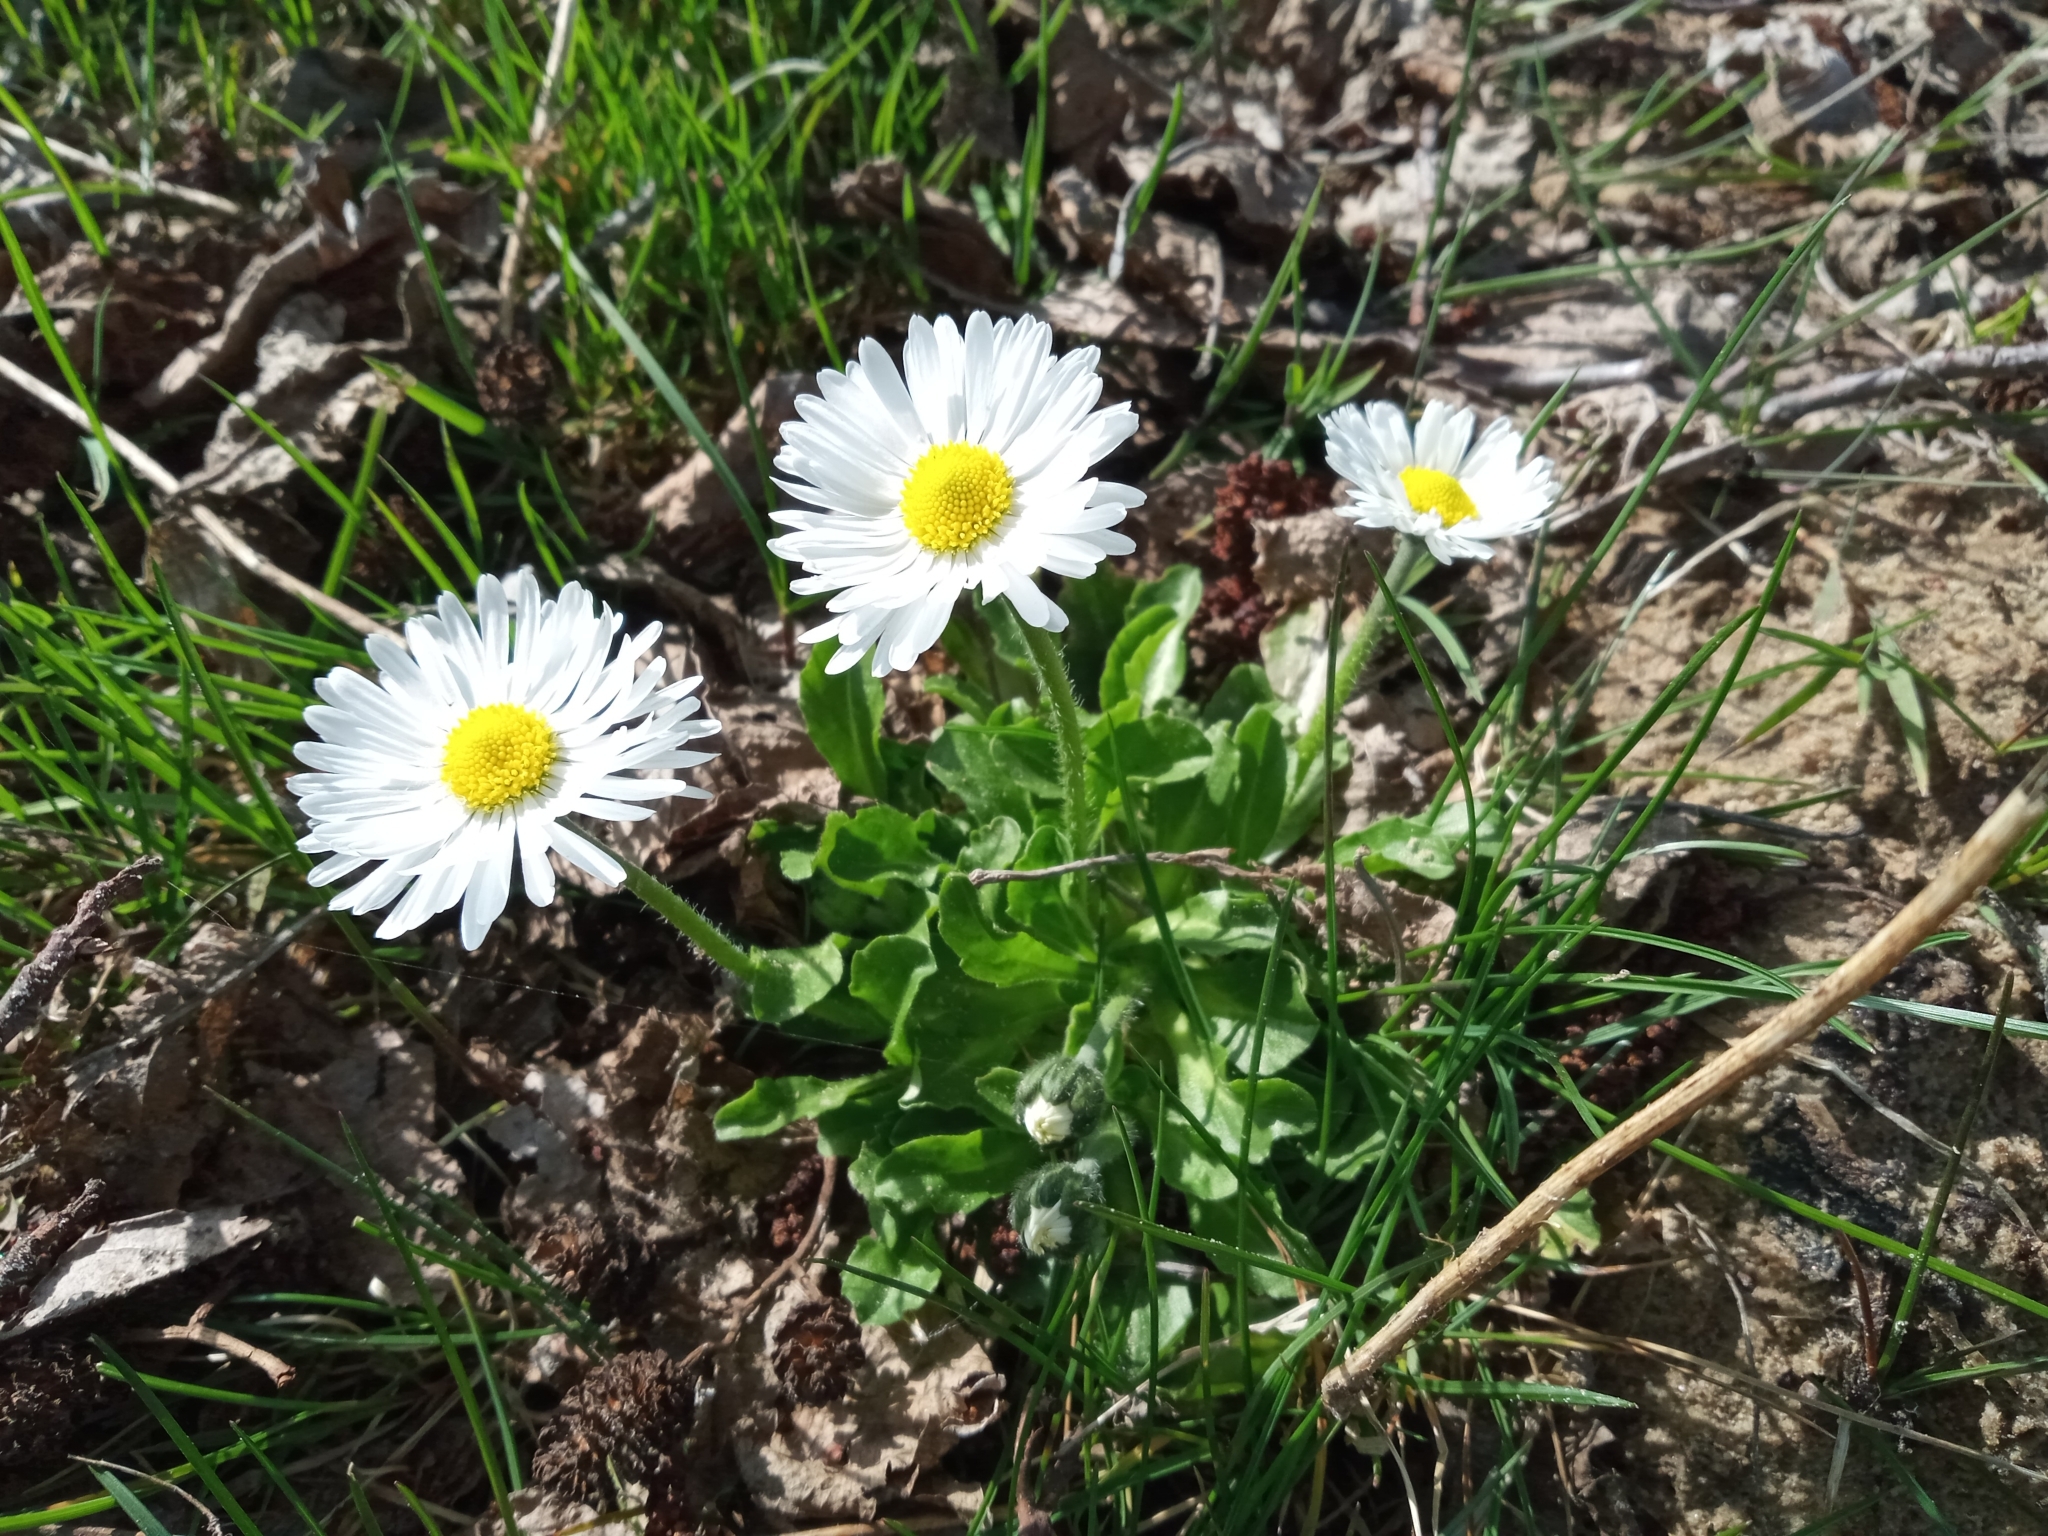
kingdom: Plantae
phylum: Tracheophyta
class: Magnoliopsida
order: Asterales
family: Asteraceae
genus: Bellis
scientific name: Bellis perennis
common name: Lawndaisy
